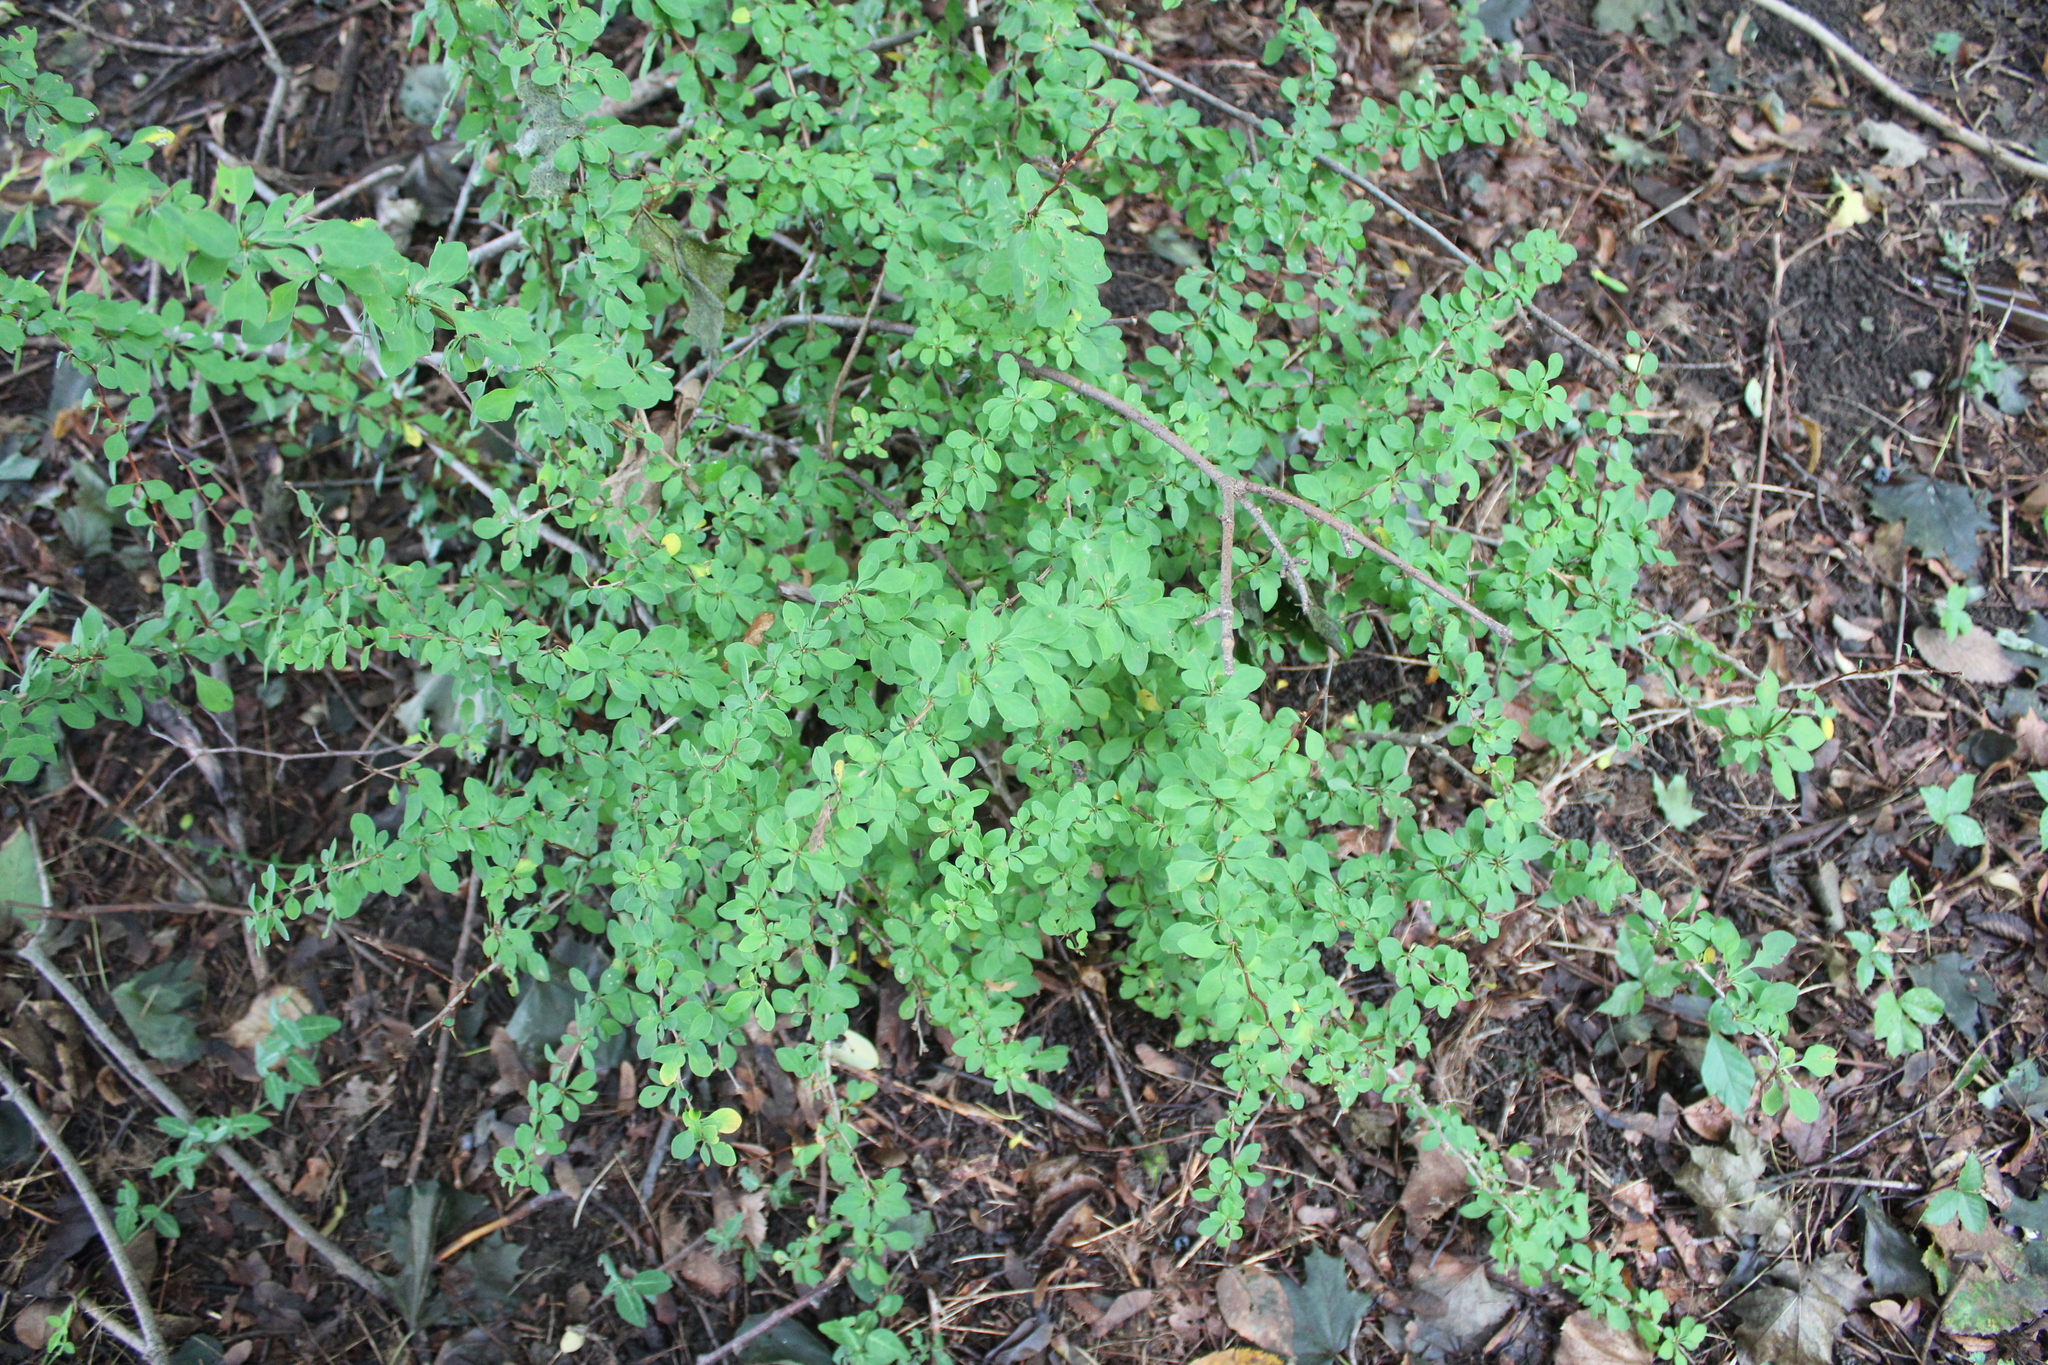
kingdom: Plantae
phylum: Tracheophyta
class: Magnoliopsida
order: Ranunculales
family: Berberidaceae
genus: Berberis
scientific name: Berberis thunbergii
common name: Japanese barberry
